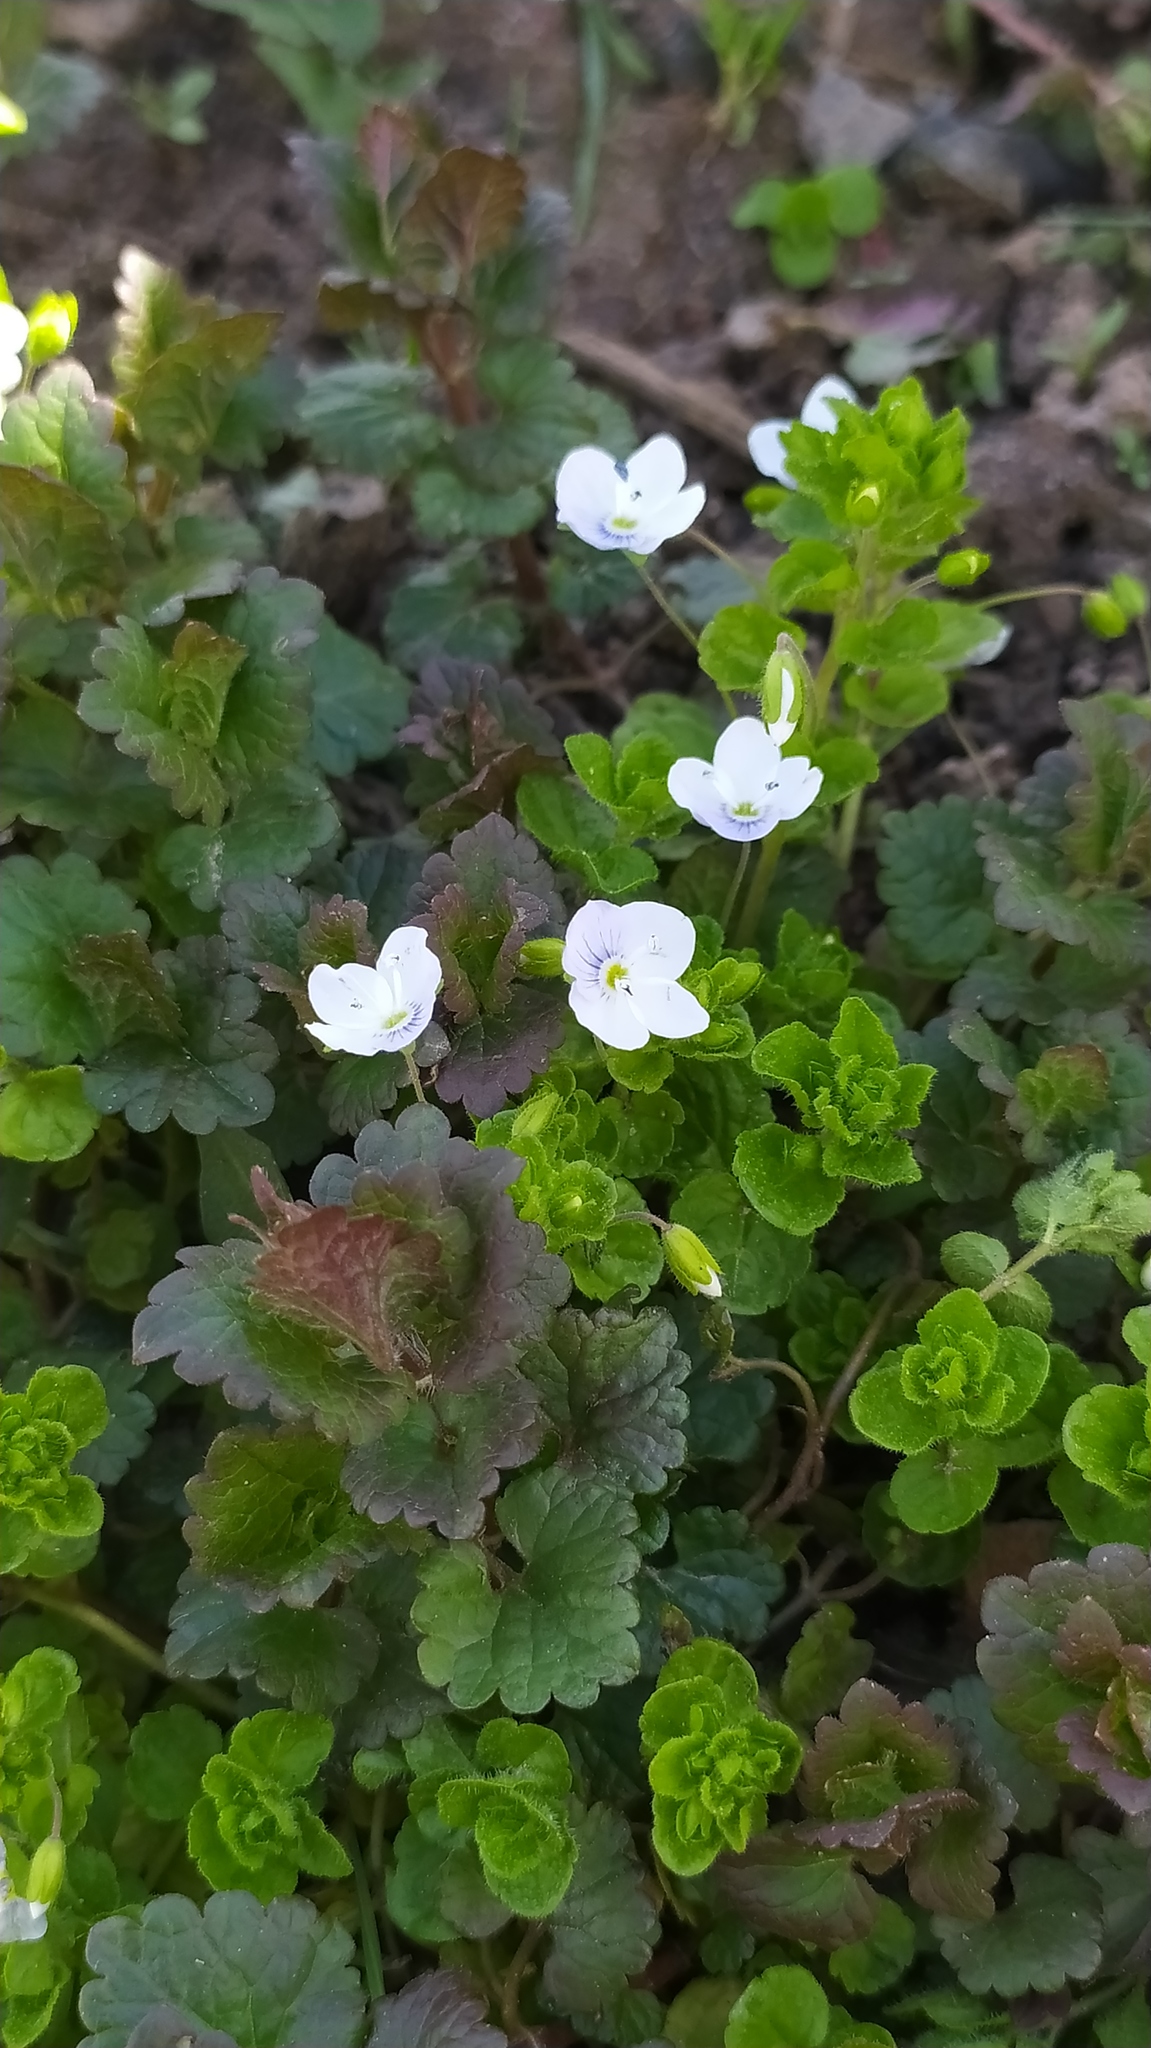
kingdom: Plantae
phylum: Tracheophyta
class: Magnoliopsida
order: Lamiales
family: Plantaginaceae
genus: Veronica
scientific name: Veronica filiformis
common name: Slender speedwell
